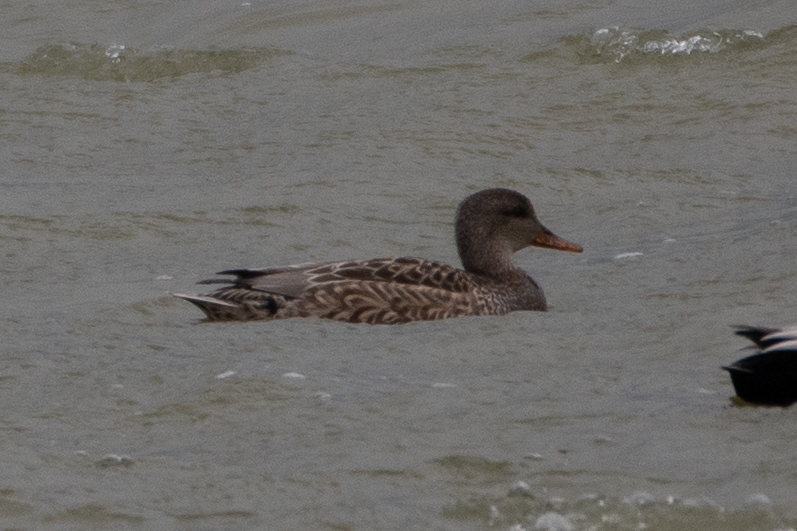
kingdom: Animalia
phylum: Chordata
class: Aves
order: Anseriformes
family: Anatidae
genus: Mareca
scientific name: Mareca strepera
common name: Gadwall
